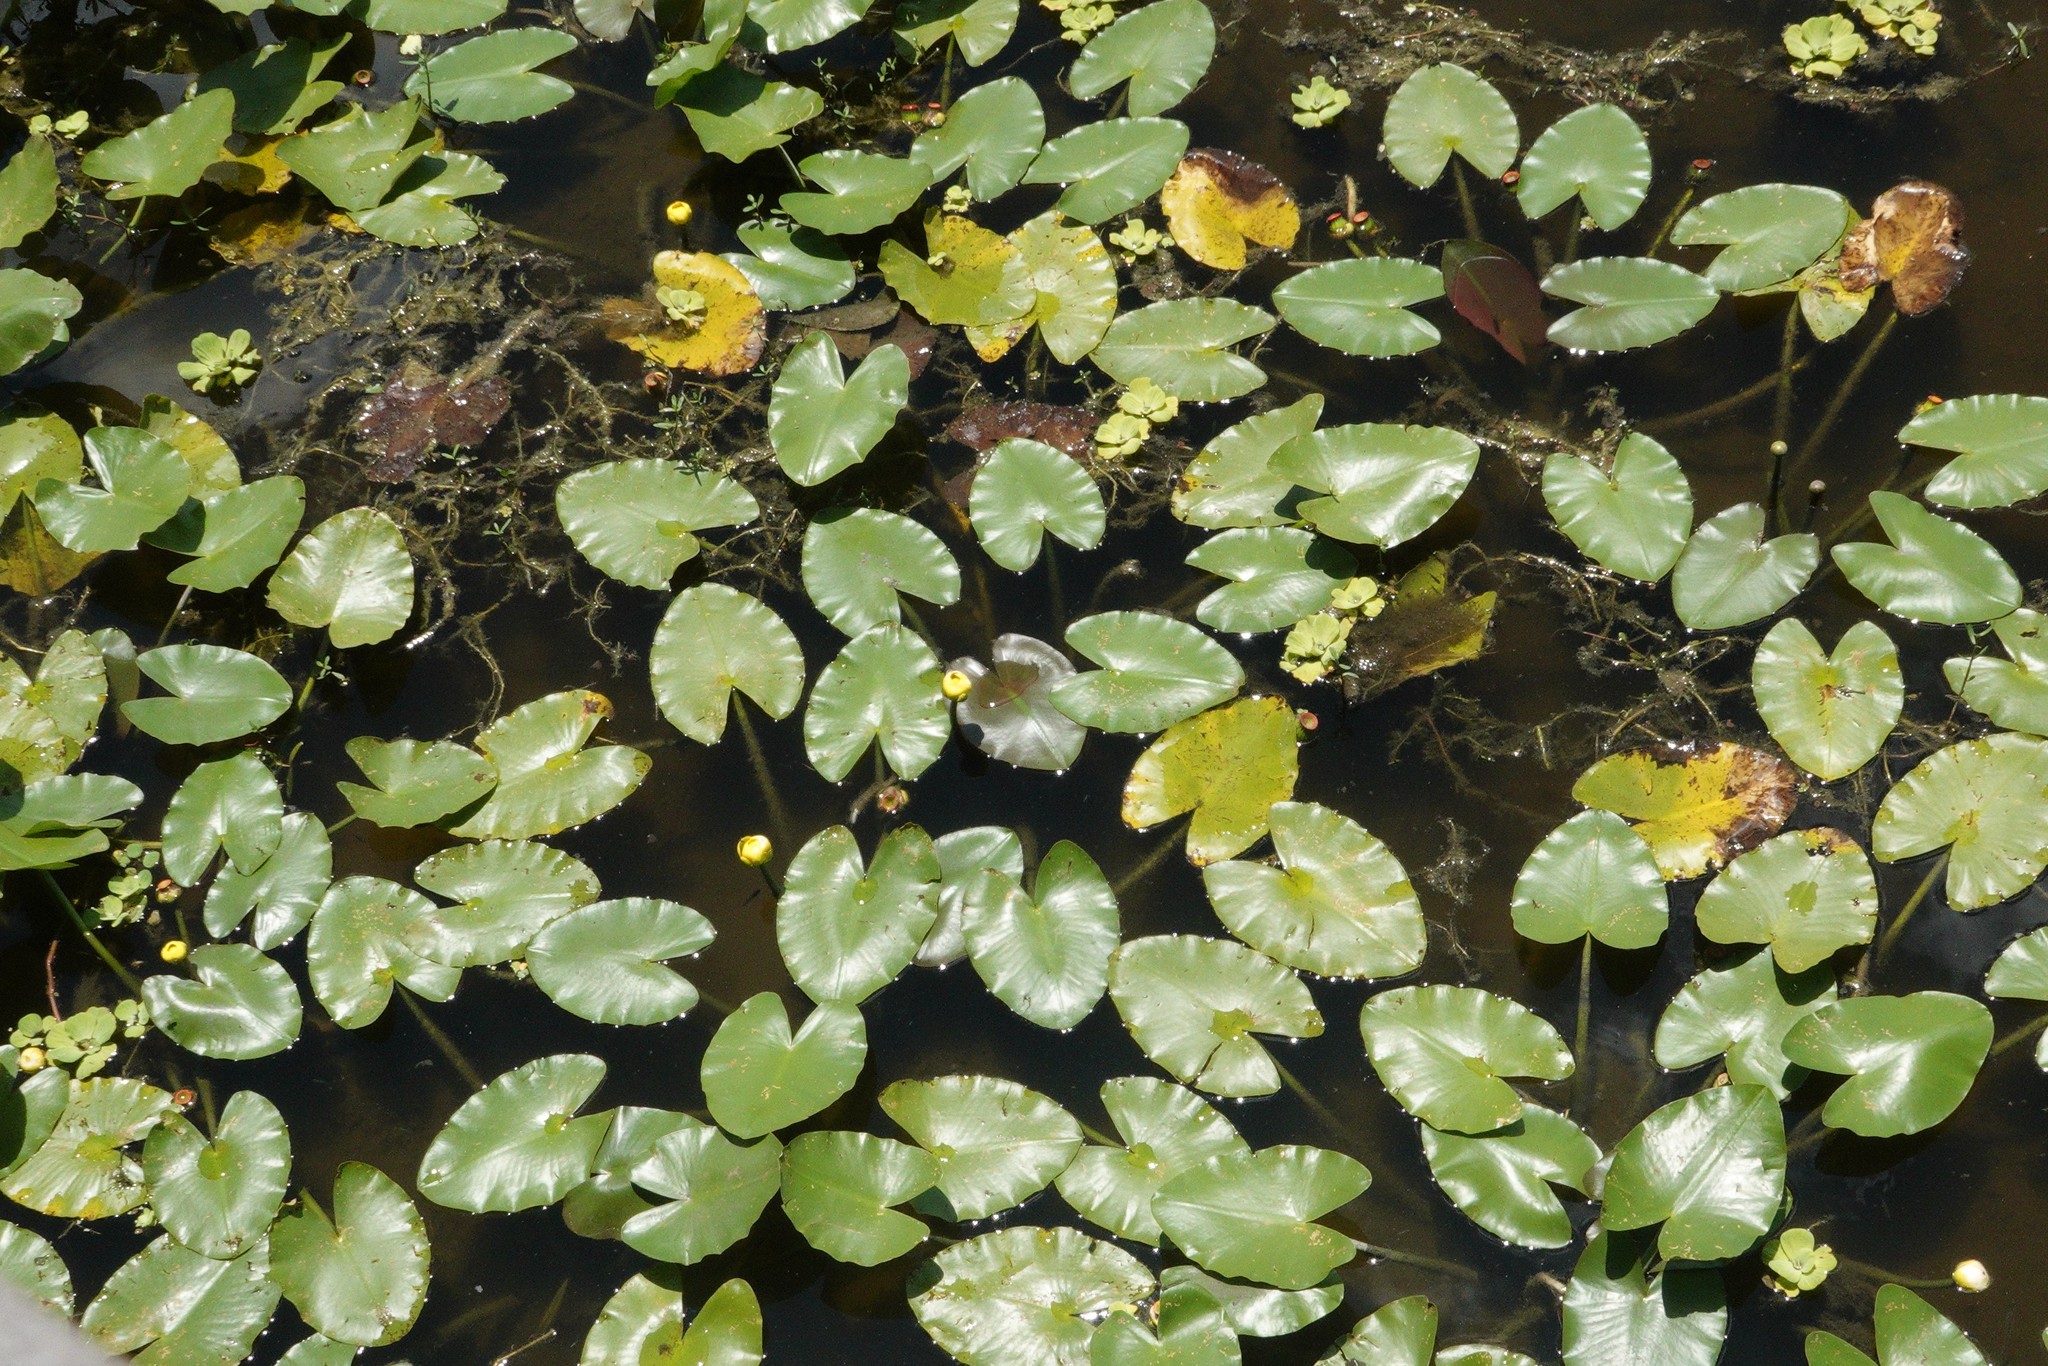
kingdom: Plantae
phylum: Tracheophyta
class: Magnoliopsida
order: Nymphaeales
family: Nymphaeaceae
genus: Nuphar
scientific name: Nuphar advena
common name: Spatter-dock
